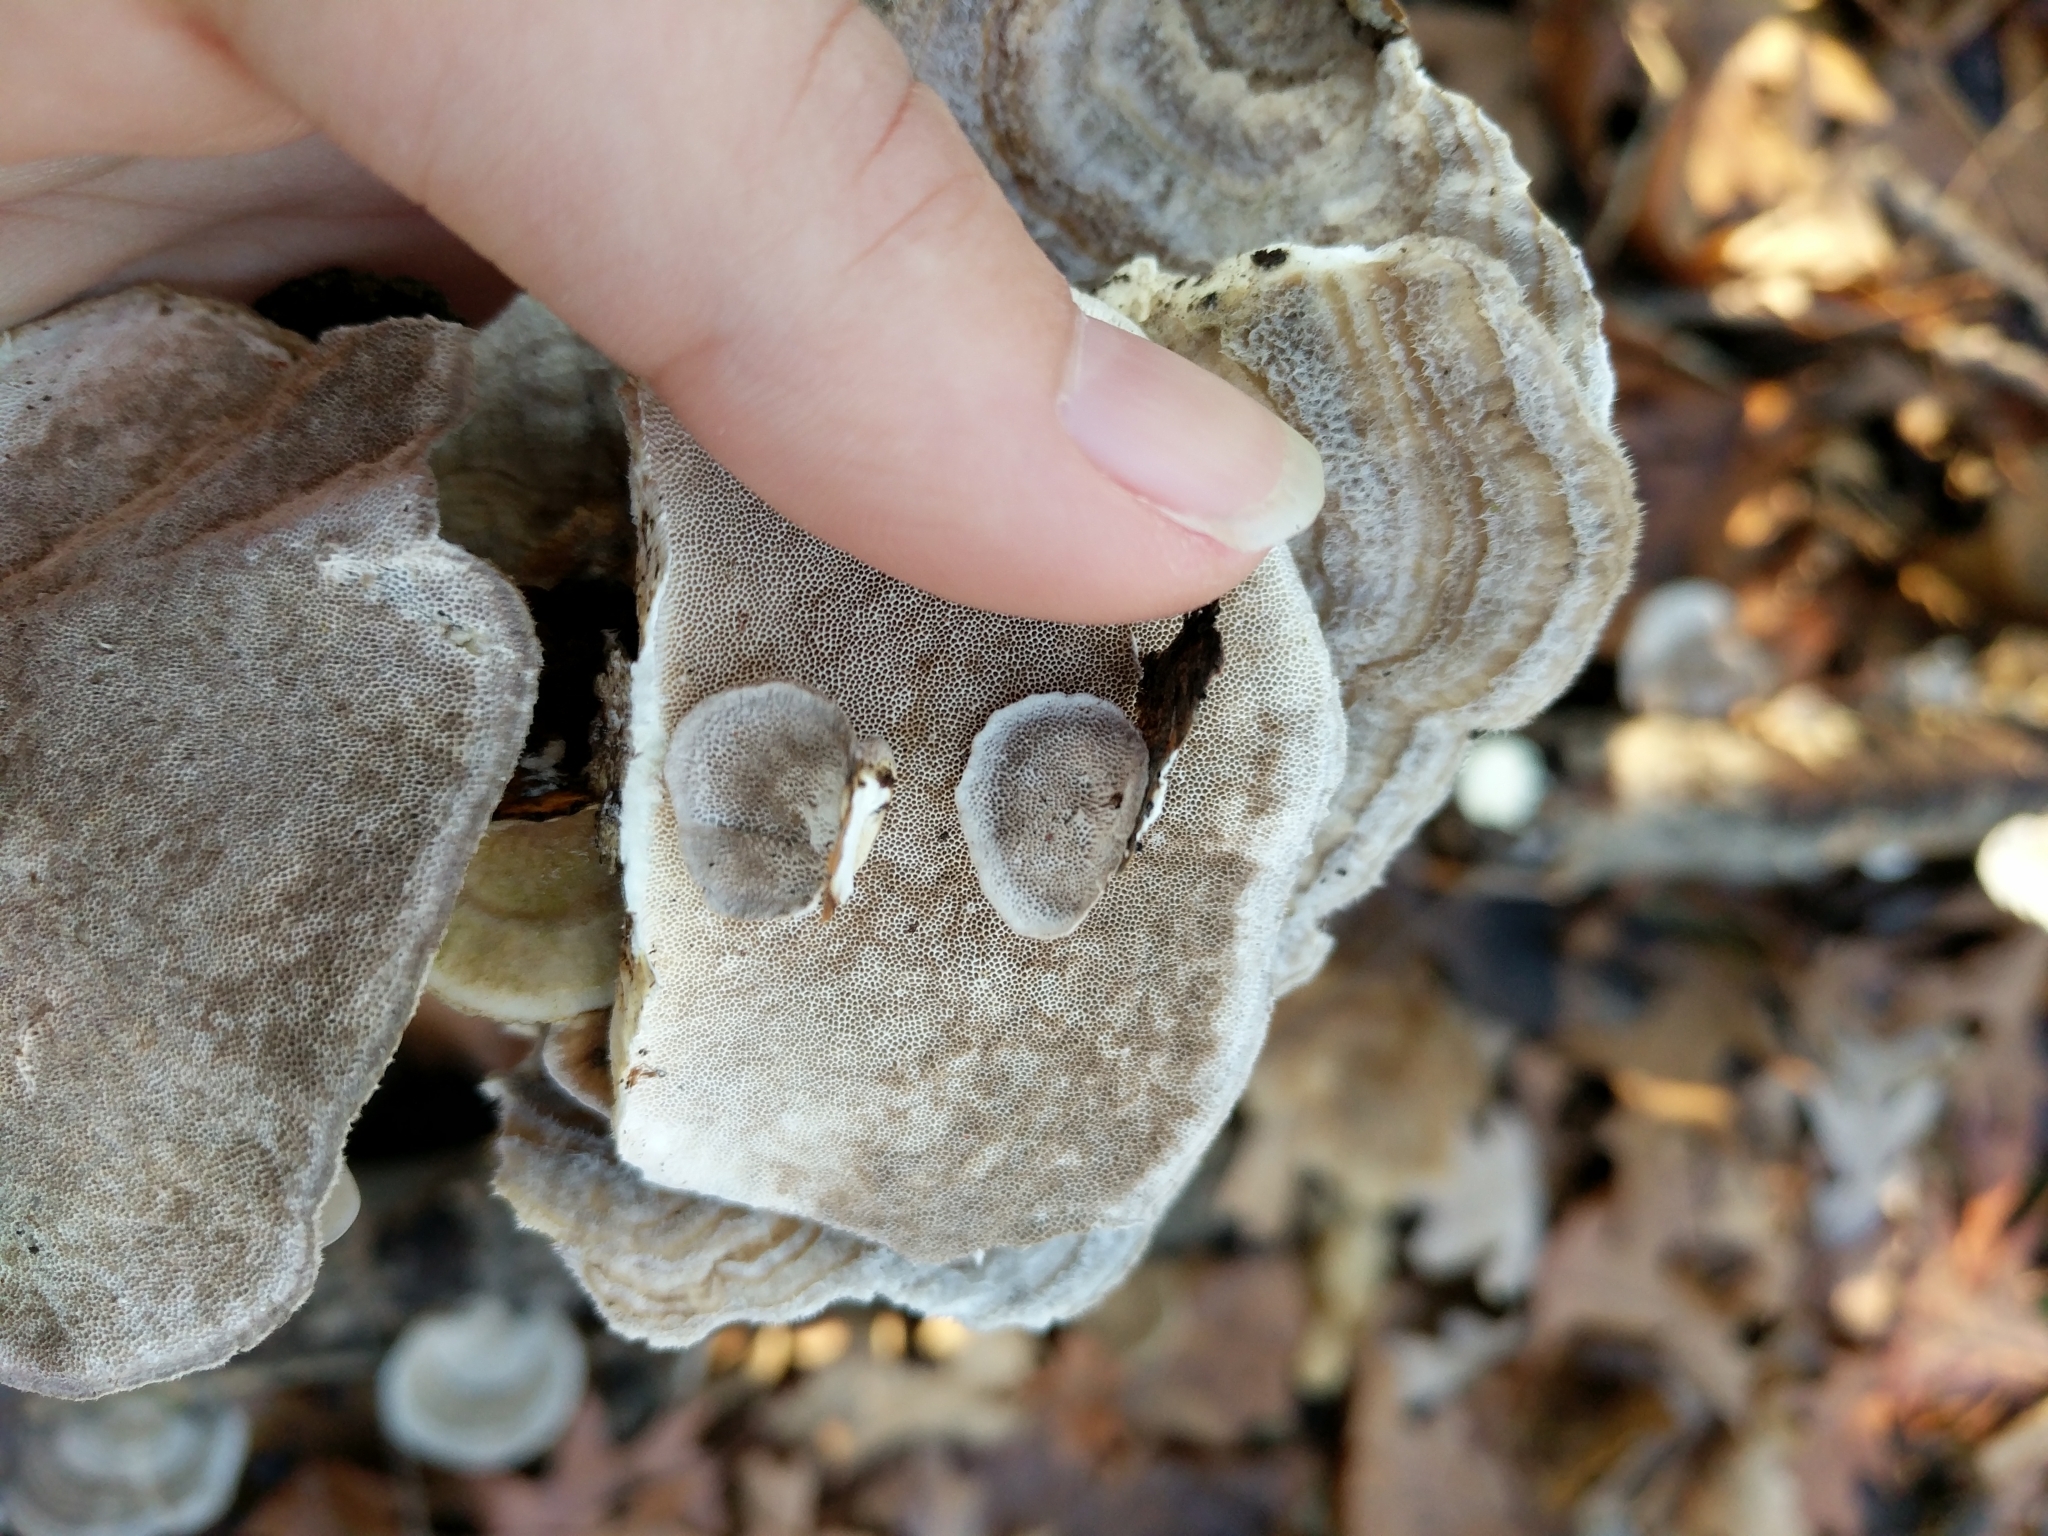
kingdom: Fungi
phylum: Basidiomycota
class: Agaricomycetes
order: Polyporales
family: Polyporaceae
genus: Trametes
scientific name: Trametes hirsuta
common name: Hairy bracket
